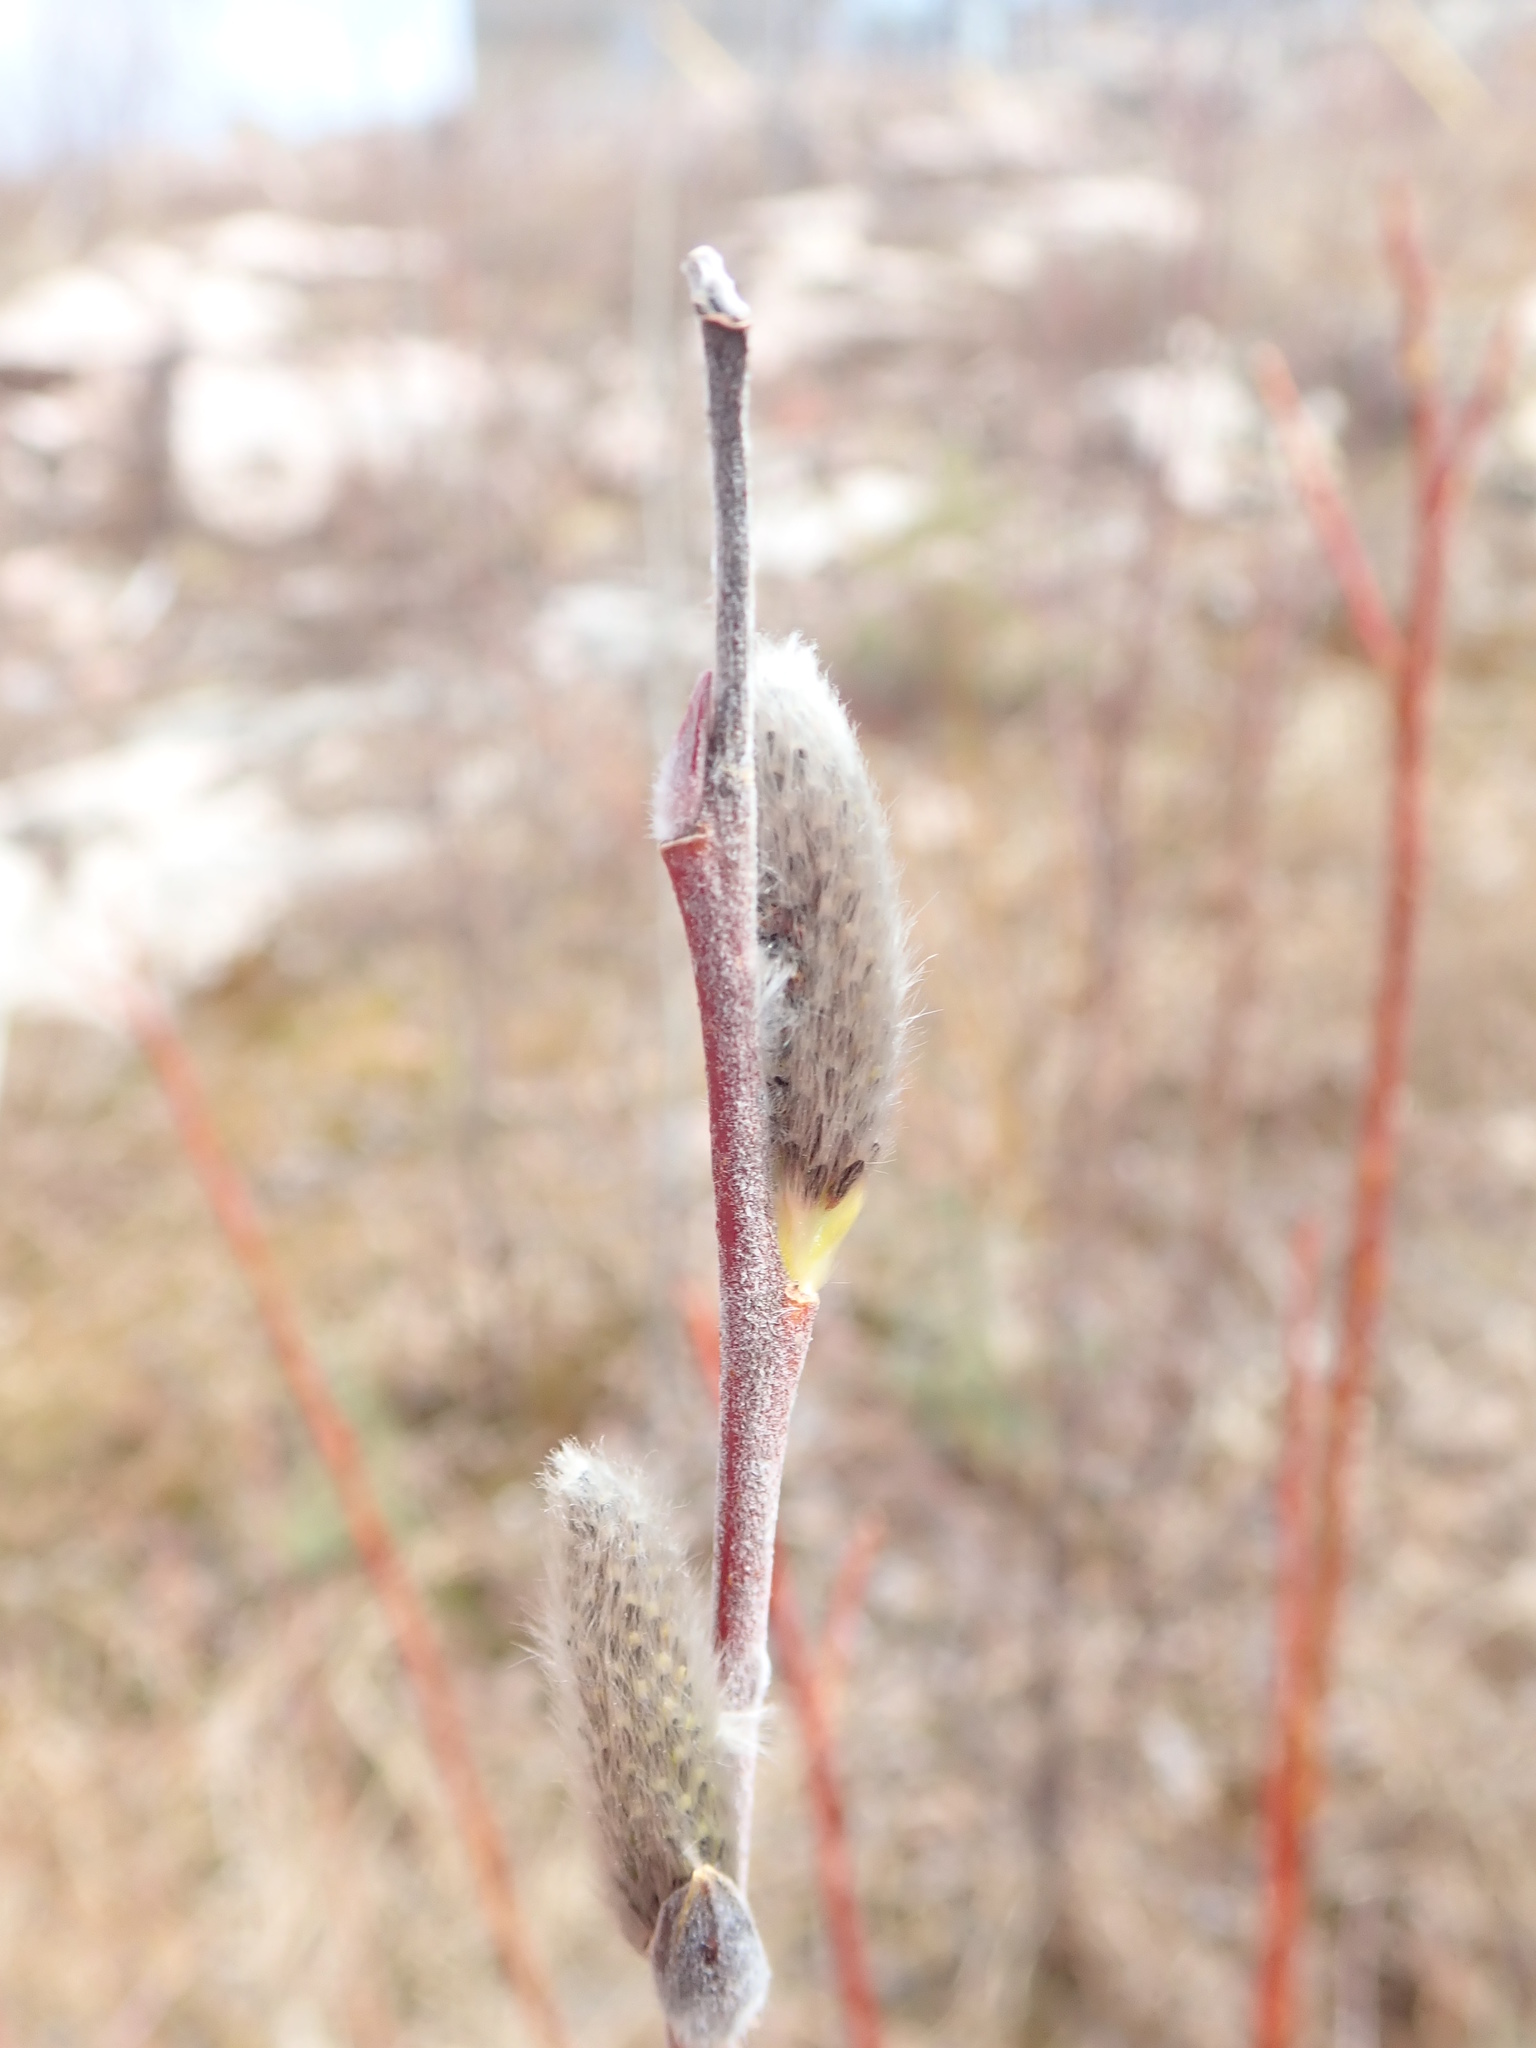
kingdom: Animalia
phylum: Arthropoda
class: Insecta
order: Diptera
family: Cecidomyiidae
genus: Rabdophaga
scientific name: Rabdophaga strobiloides
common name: Willow pinecone gall midge
